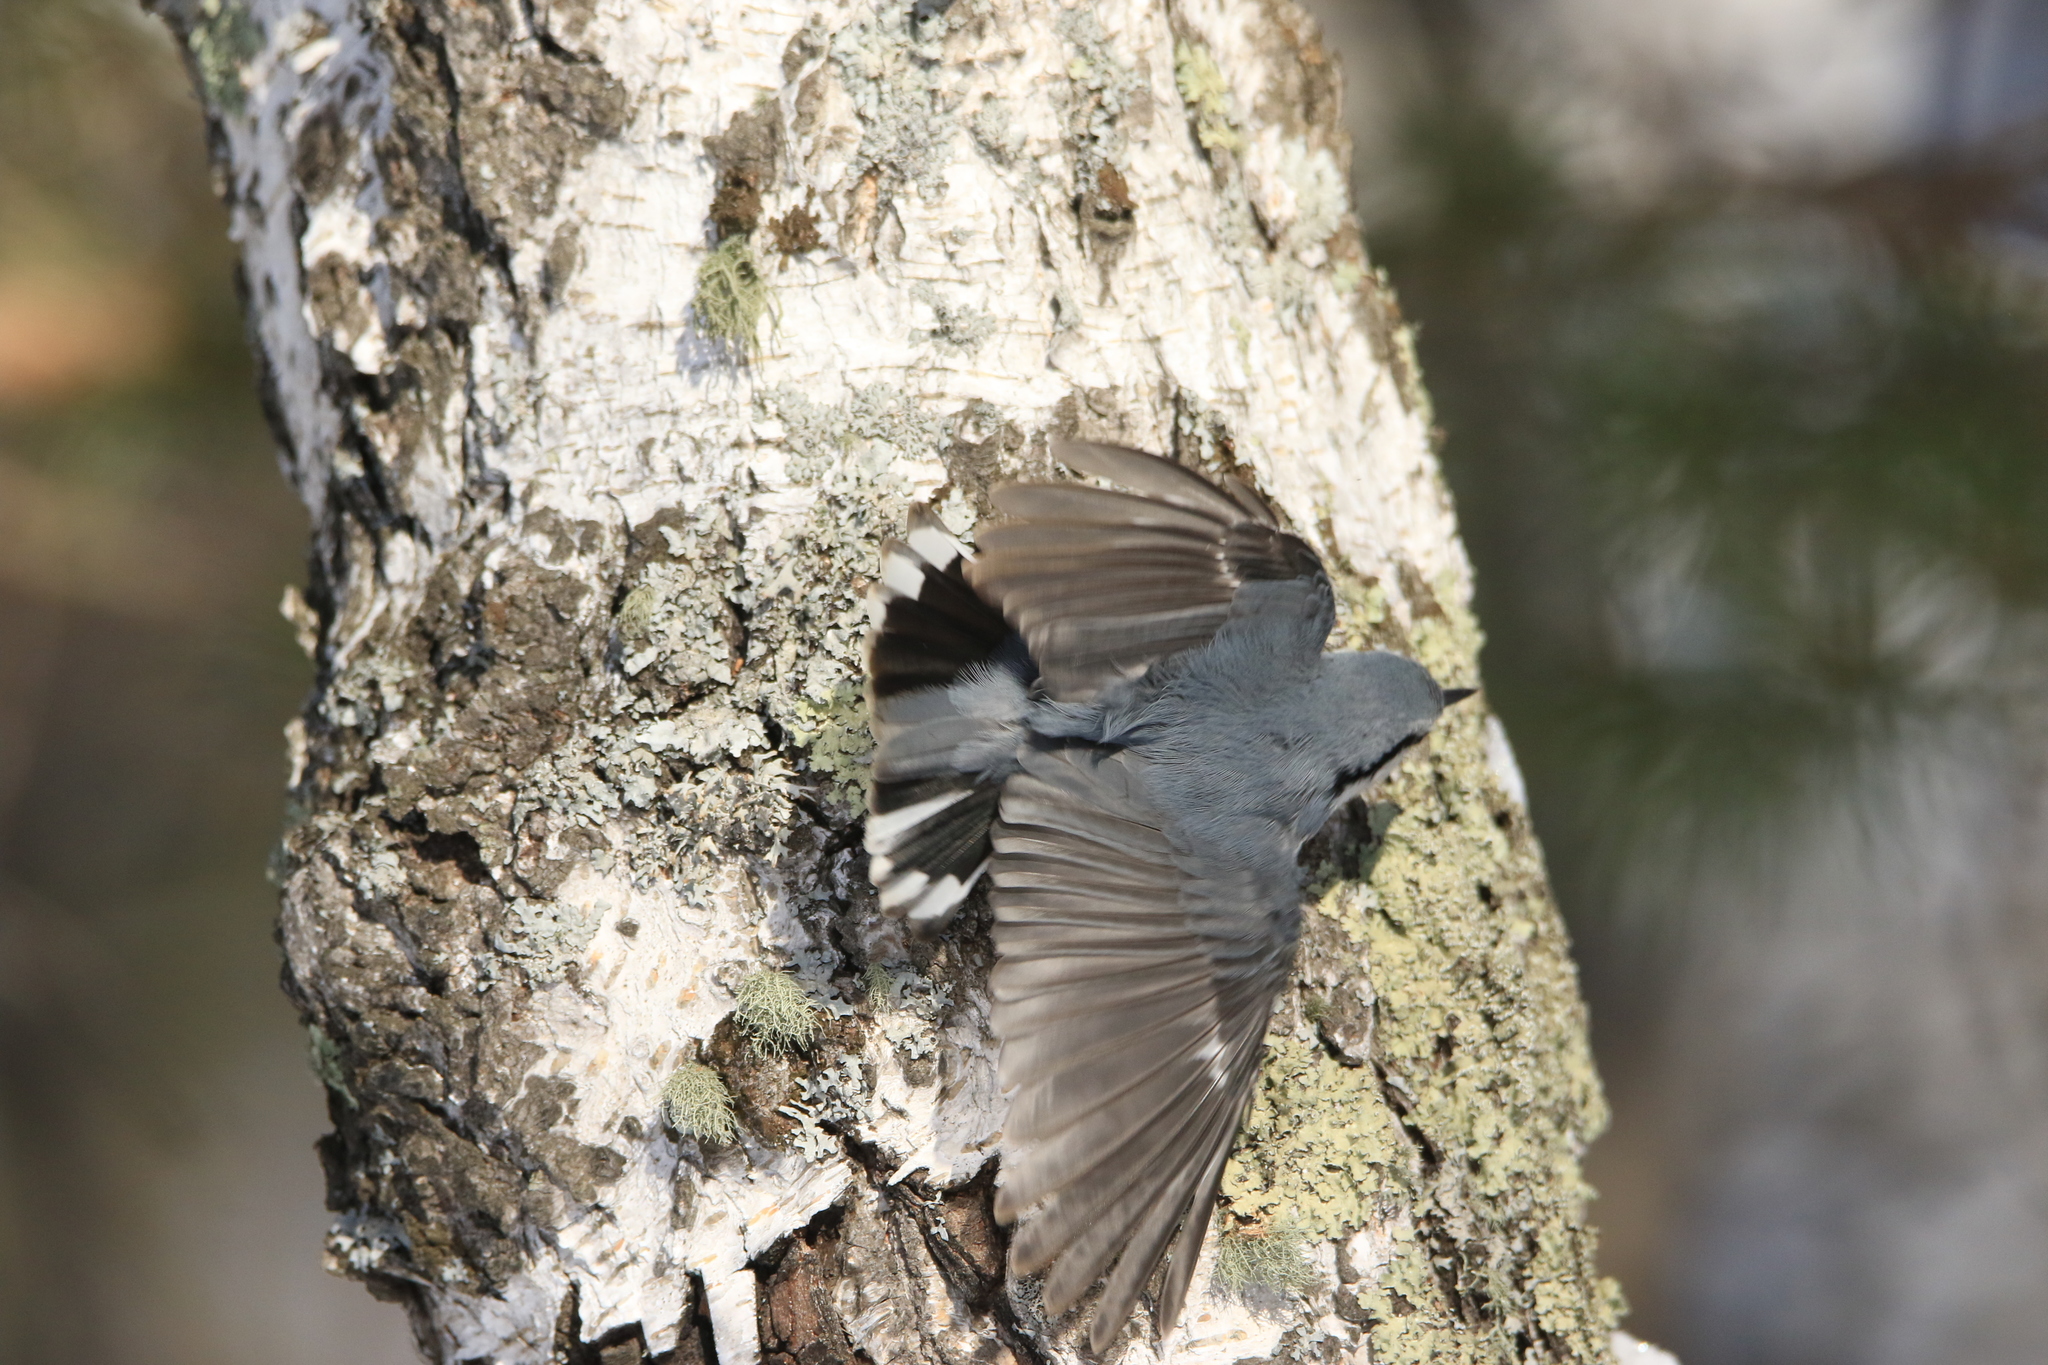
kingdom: Animalia
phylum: Chordata
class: Aves
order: Passeriformes
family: Sittidae
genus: Sitta
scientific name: Sitta europaea
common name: Eurasian nuthatch
